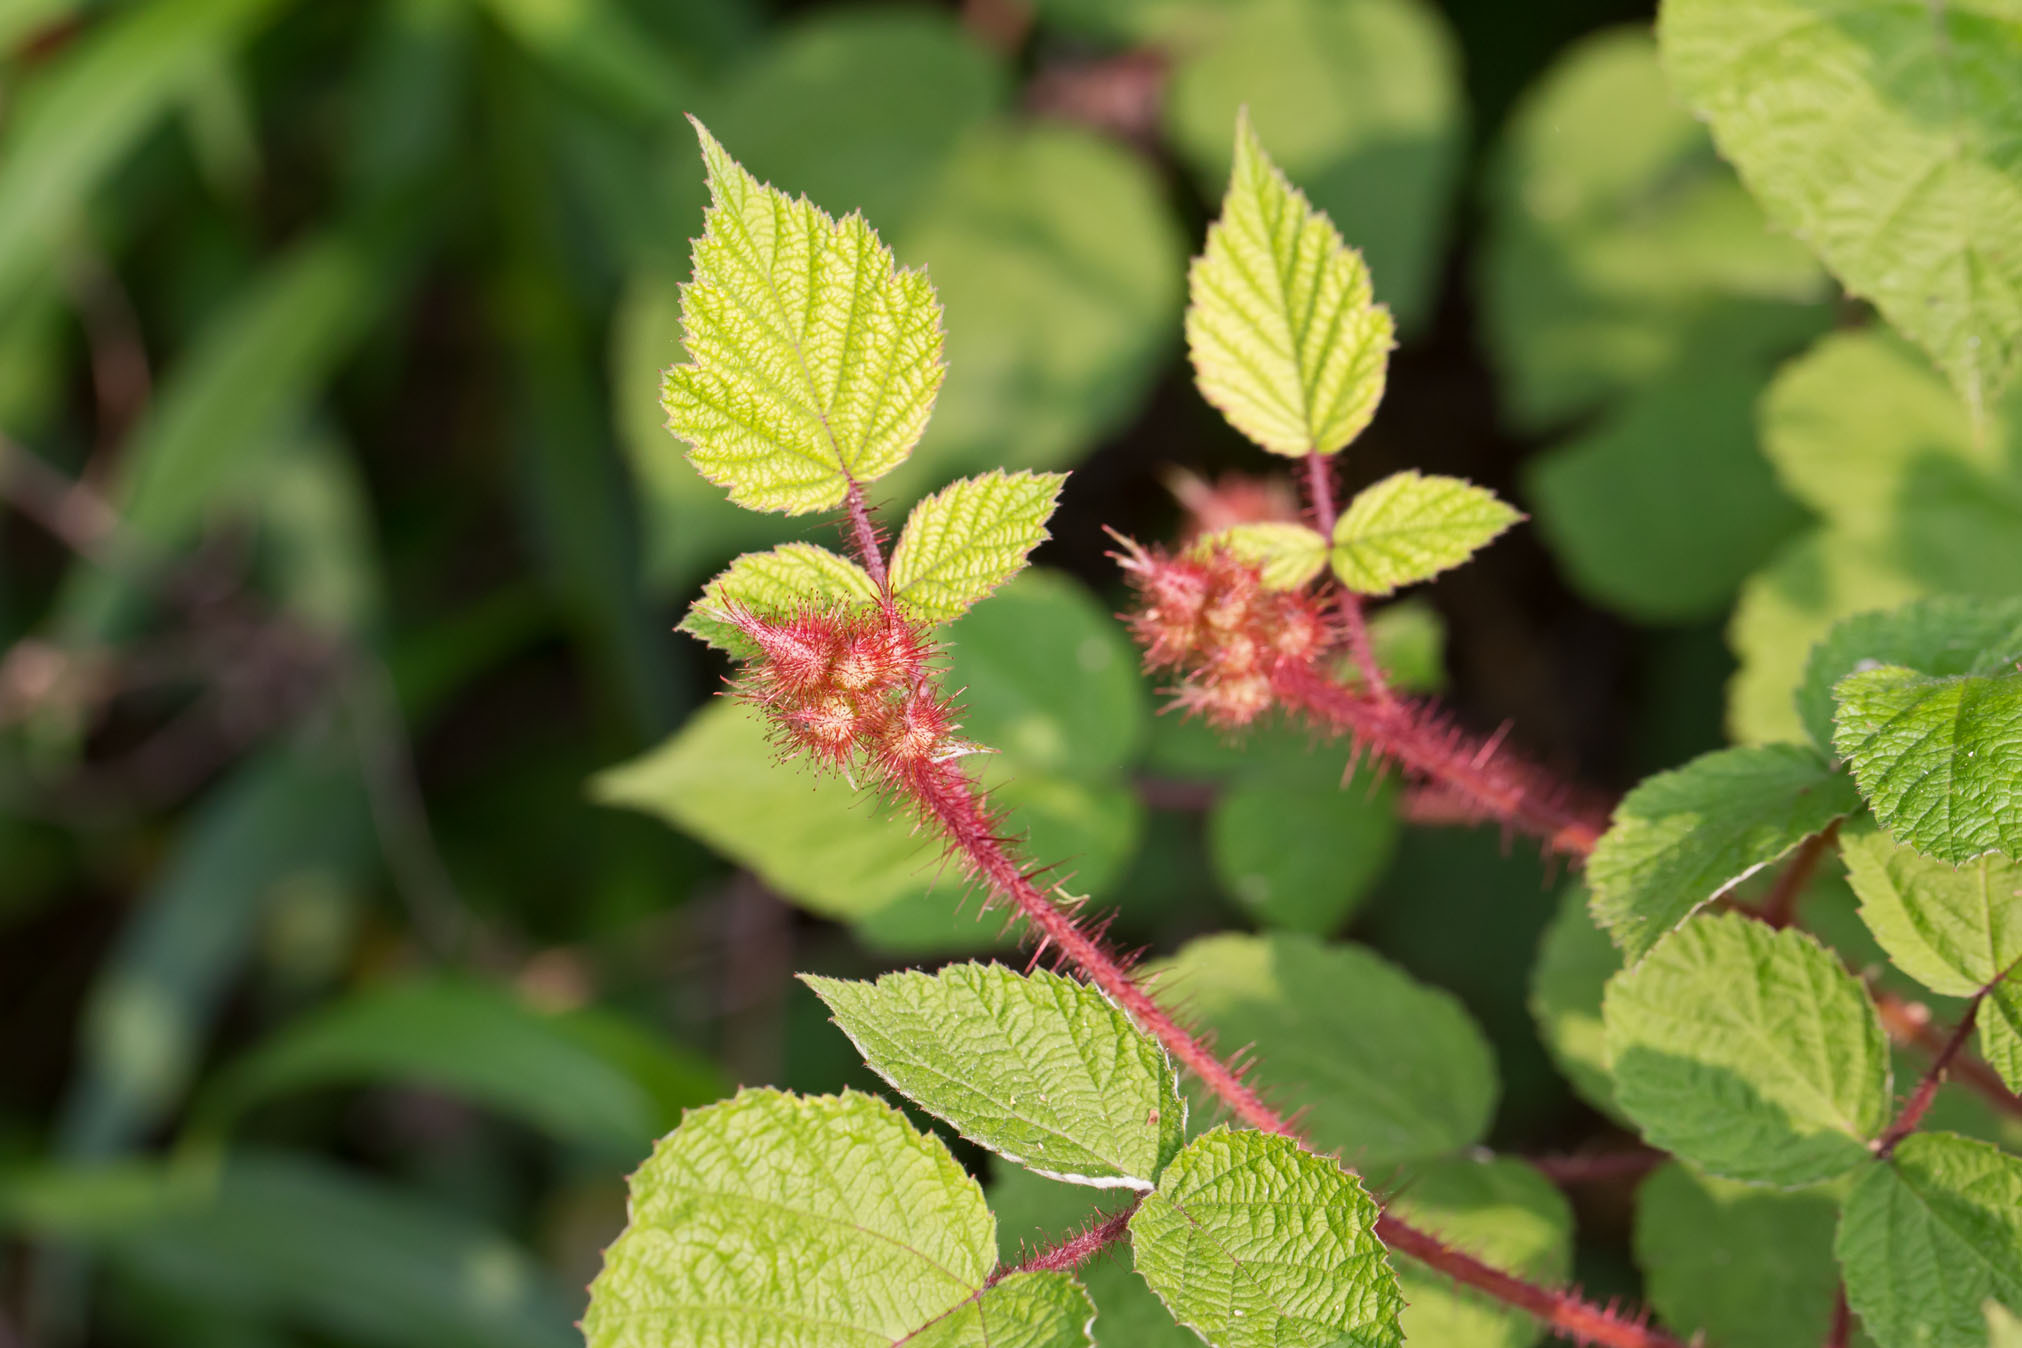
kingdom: Plantae
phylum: Tracheophyta
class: Magnoliopsida
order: Rosales
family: Rosaceae
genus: Rubus
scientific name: Rubus phoenicolasius
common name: Japanese wineberry
